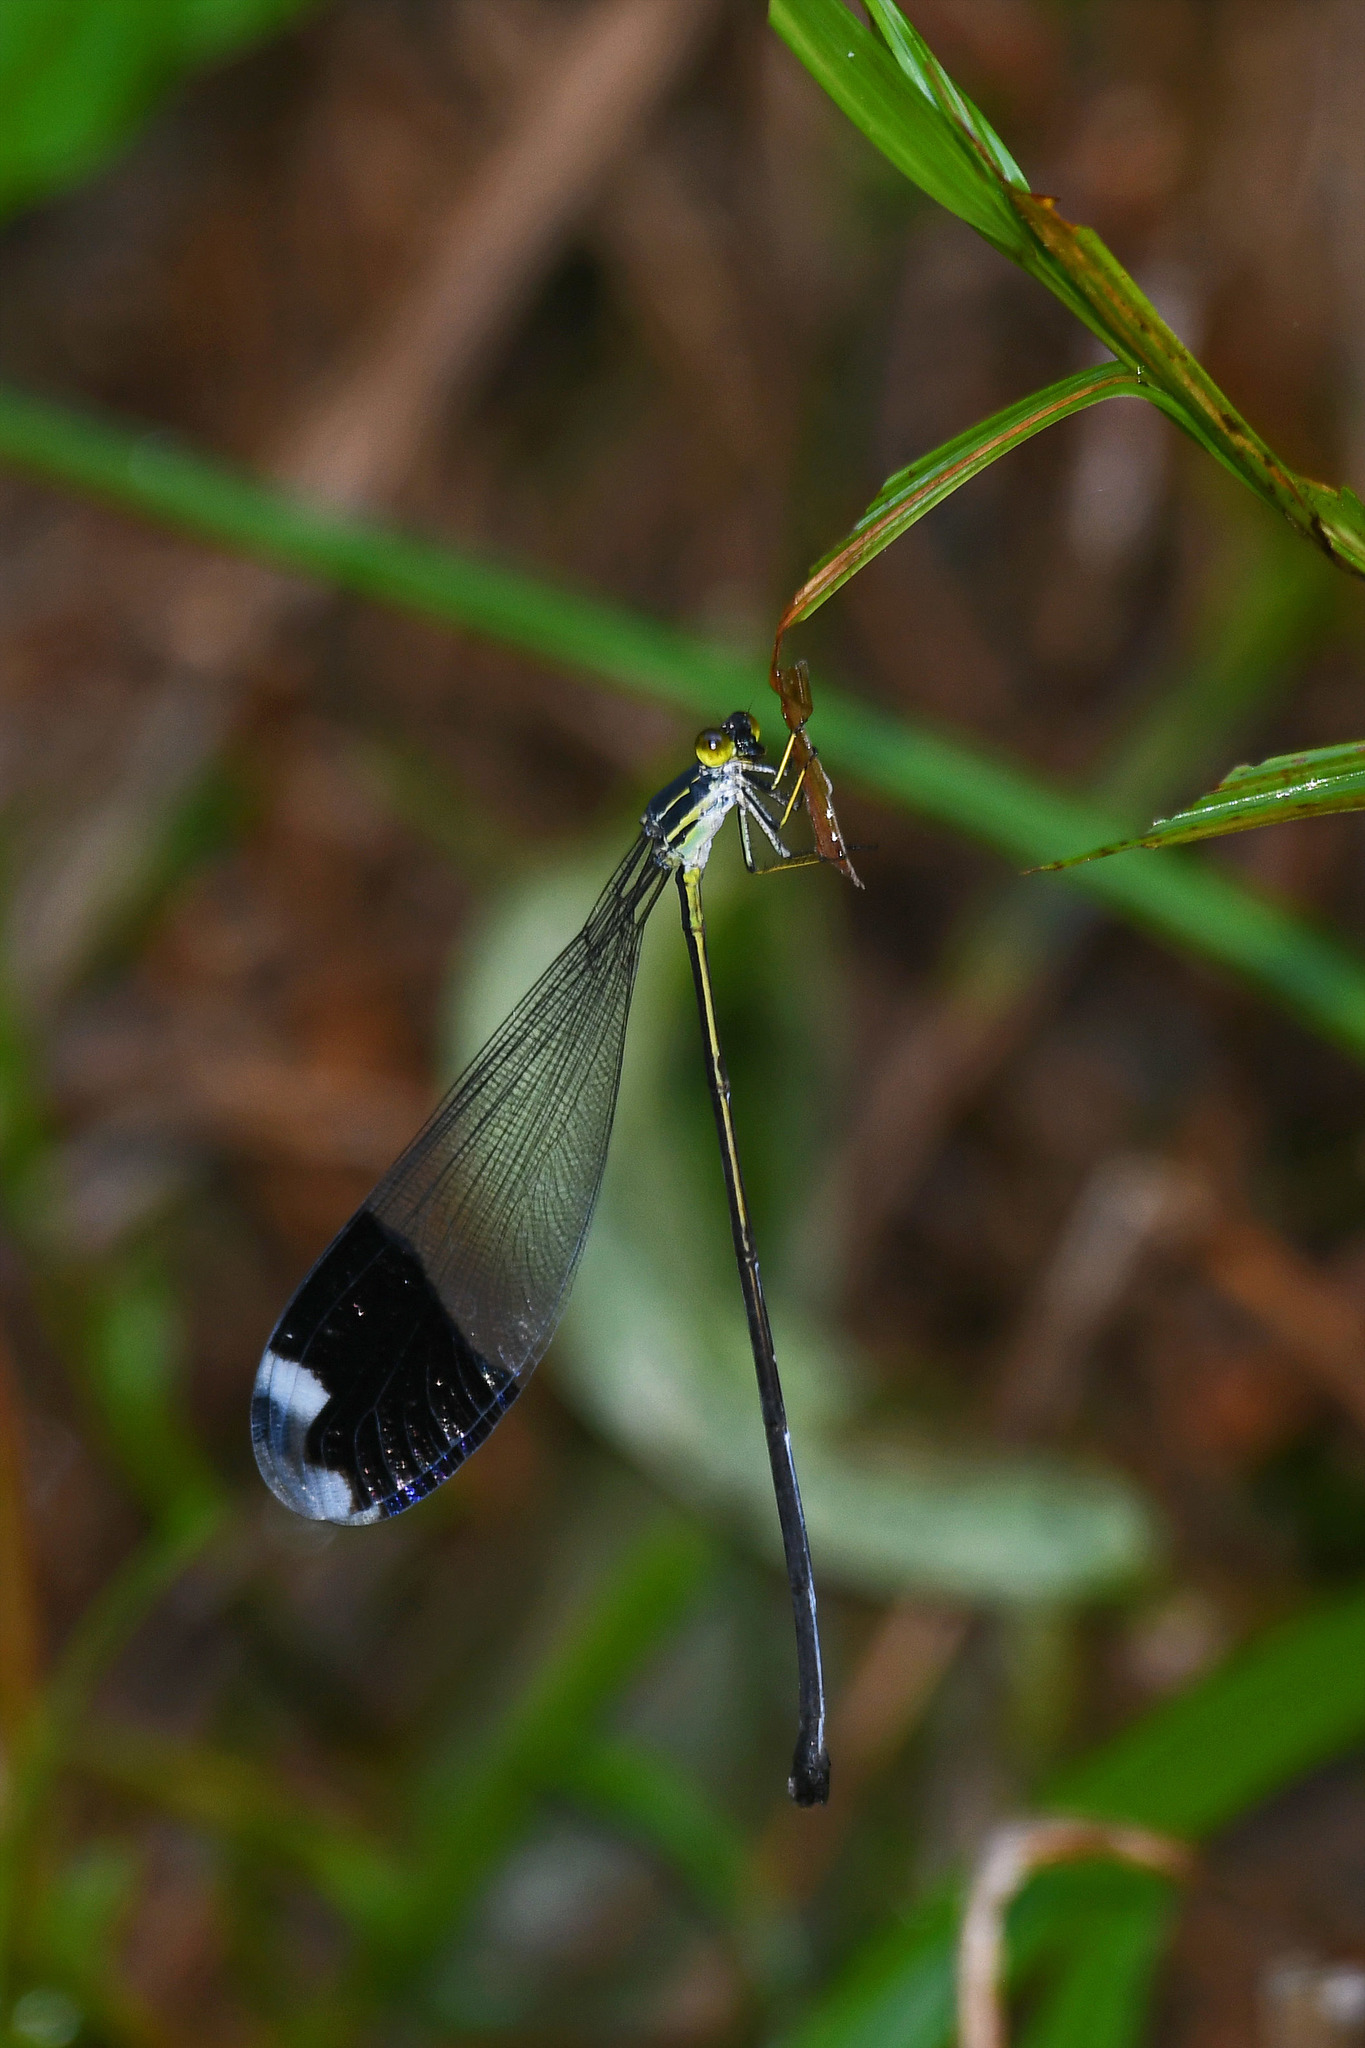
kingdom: Animalia
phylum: Arthropoda
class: Insecta
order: Odonata
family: Coenagrionidae
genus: Megaloprepus
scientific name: Megaloprepus caerulatus
